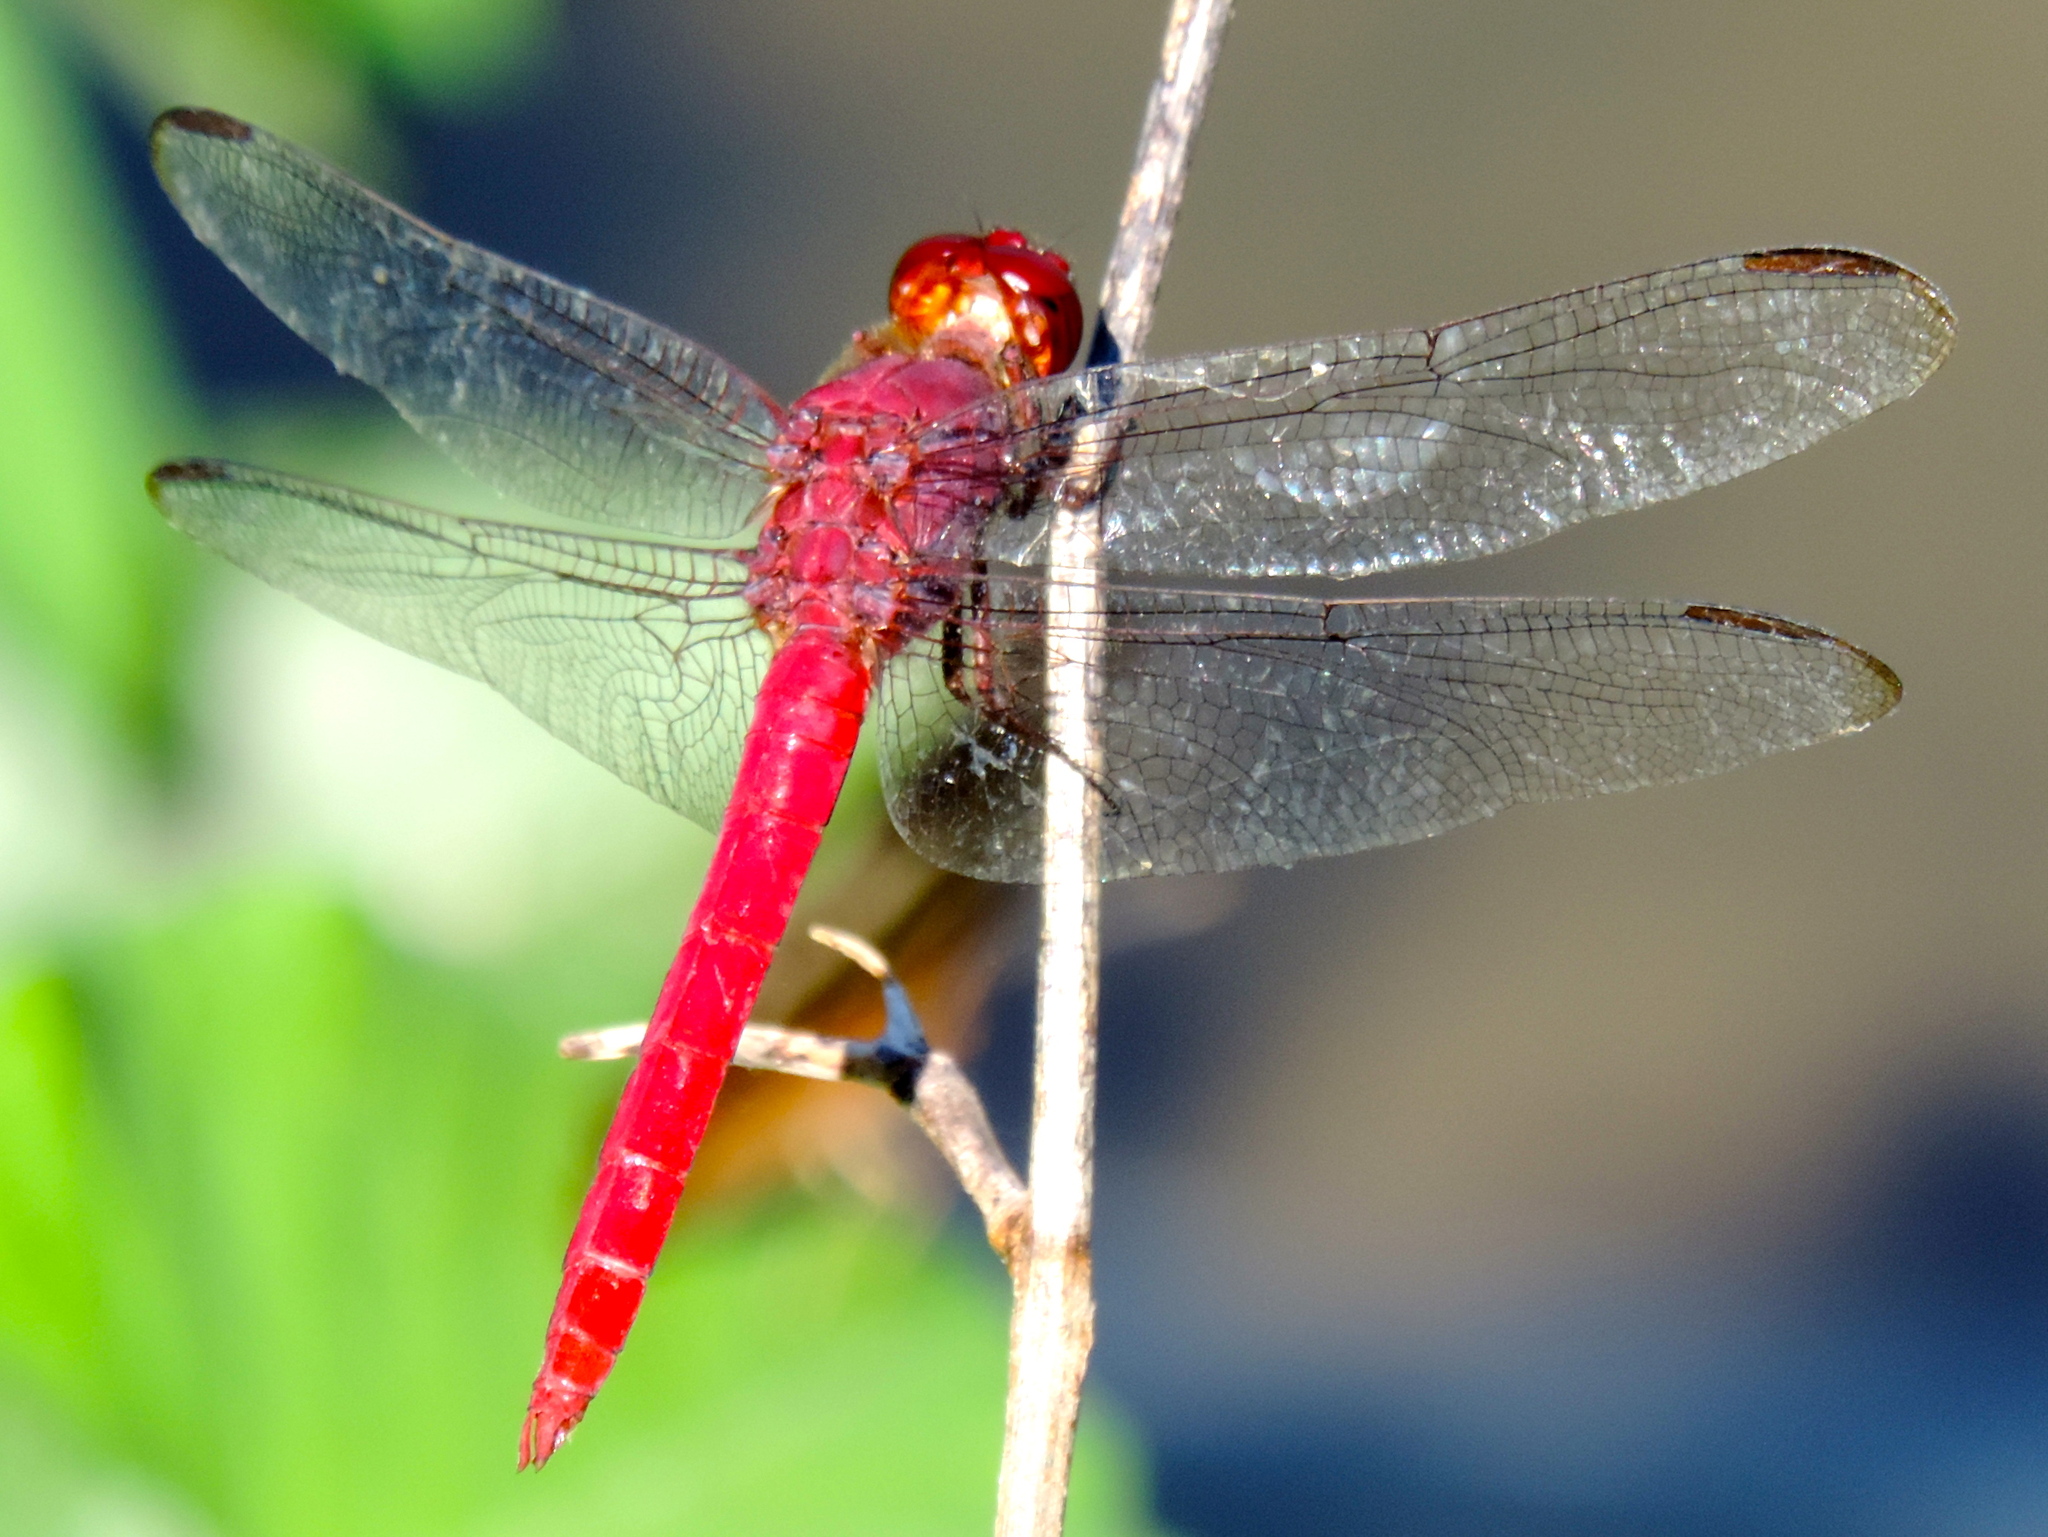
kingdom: Animalia
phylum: Arthropoda
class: Insecta
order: Odonata
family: Libellulidae
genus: Orthemis
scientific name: Orthemis schmidti
